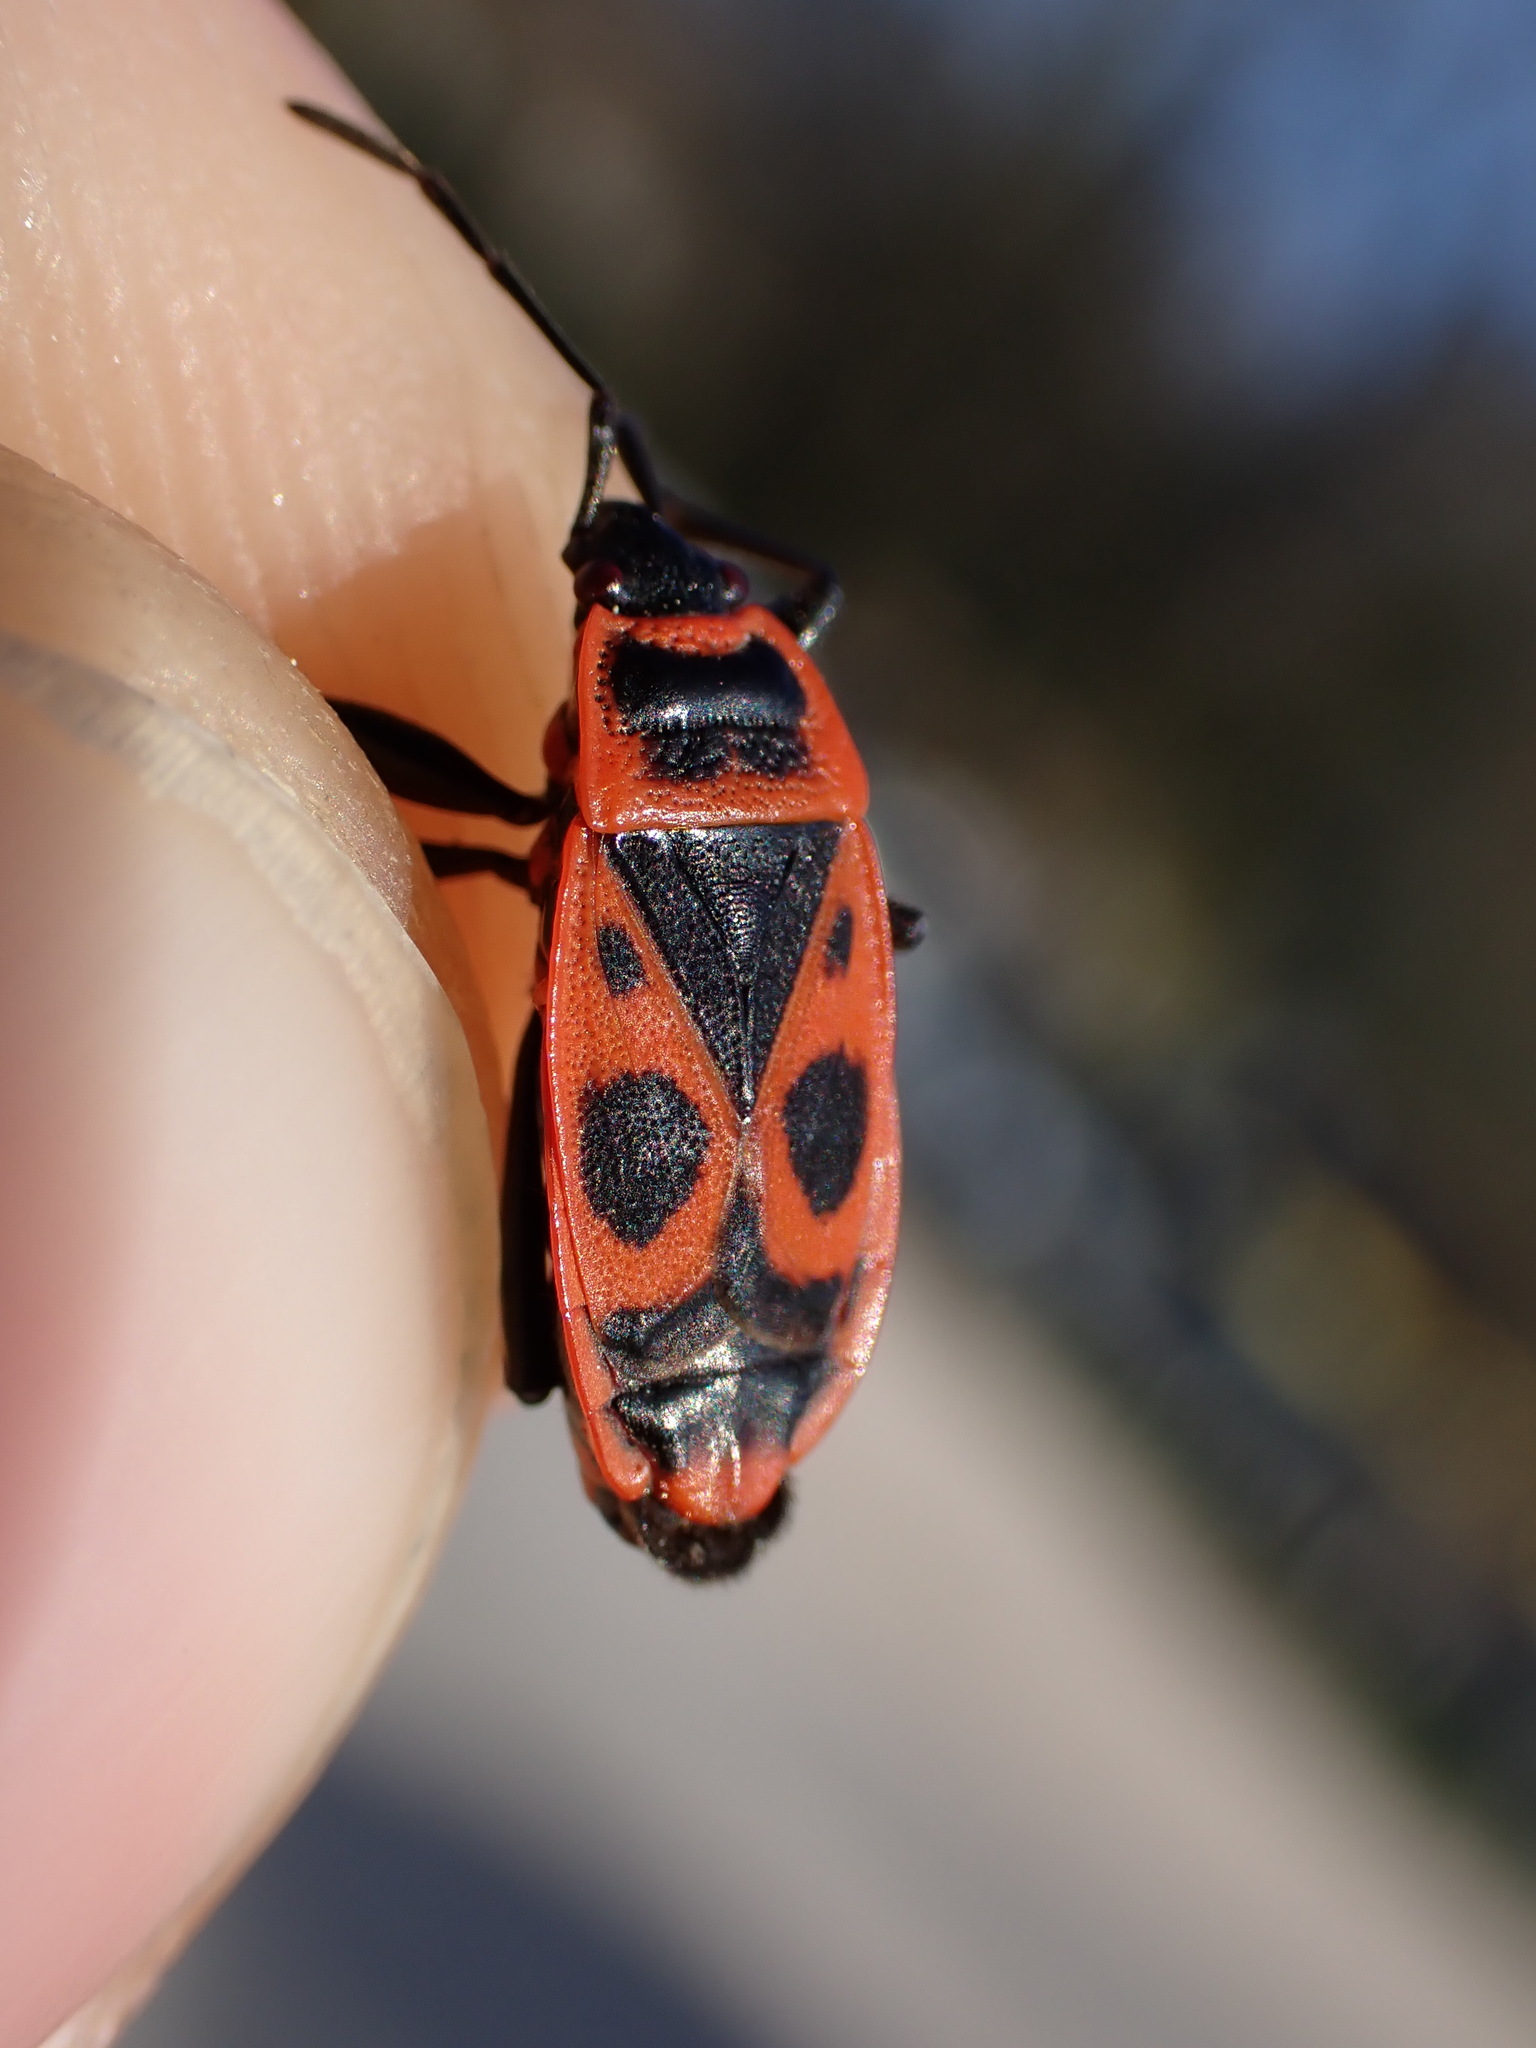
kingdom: Animalia
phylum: Arthropoda
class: Insecta
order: Hemiptera
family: Pyrrhocoridae
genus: Pyrrhocoris
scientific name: Pyrrhocoris apterus
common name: Firebug
